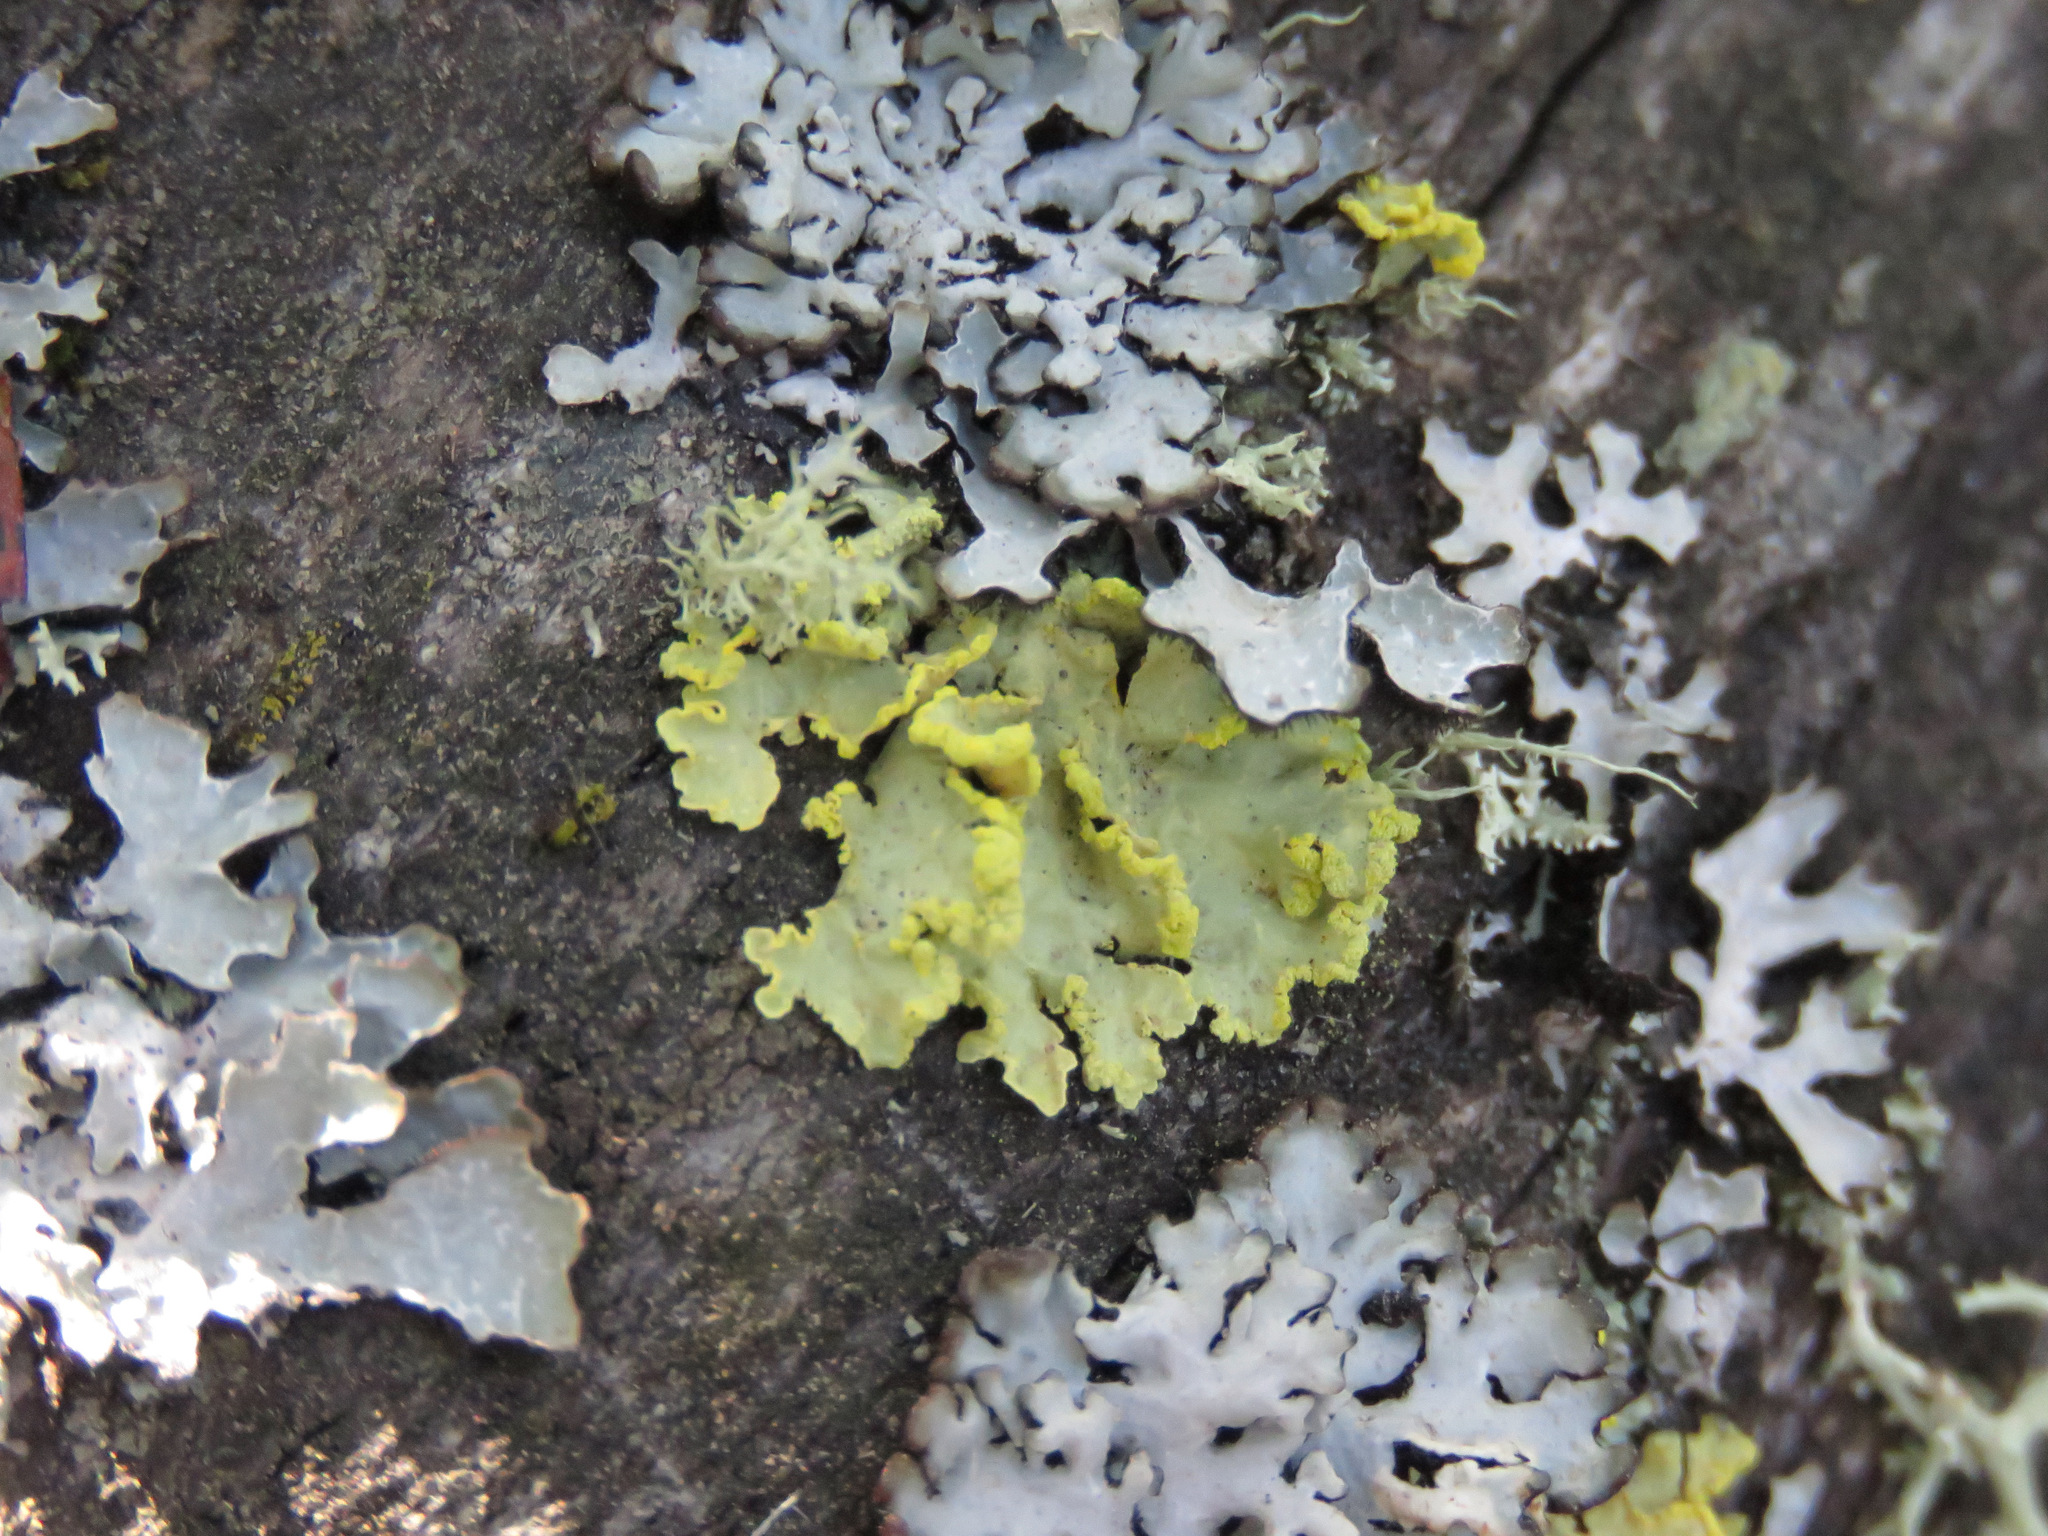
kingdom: Fungi
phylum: Ascomycota
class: Lecanoromycetes
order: Lecanorales
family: Parmeliaceae
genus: Vulpicida
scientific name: Vulpicida pinastri
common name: Powdered sunshine lichen
